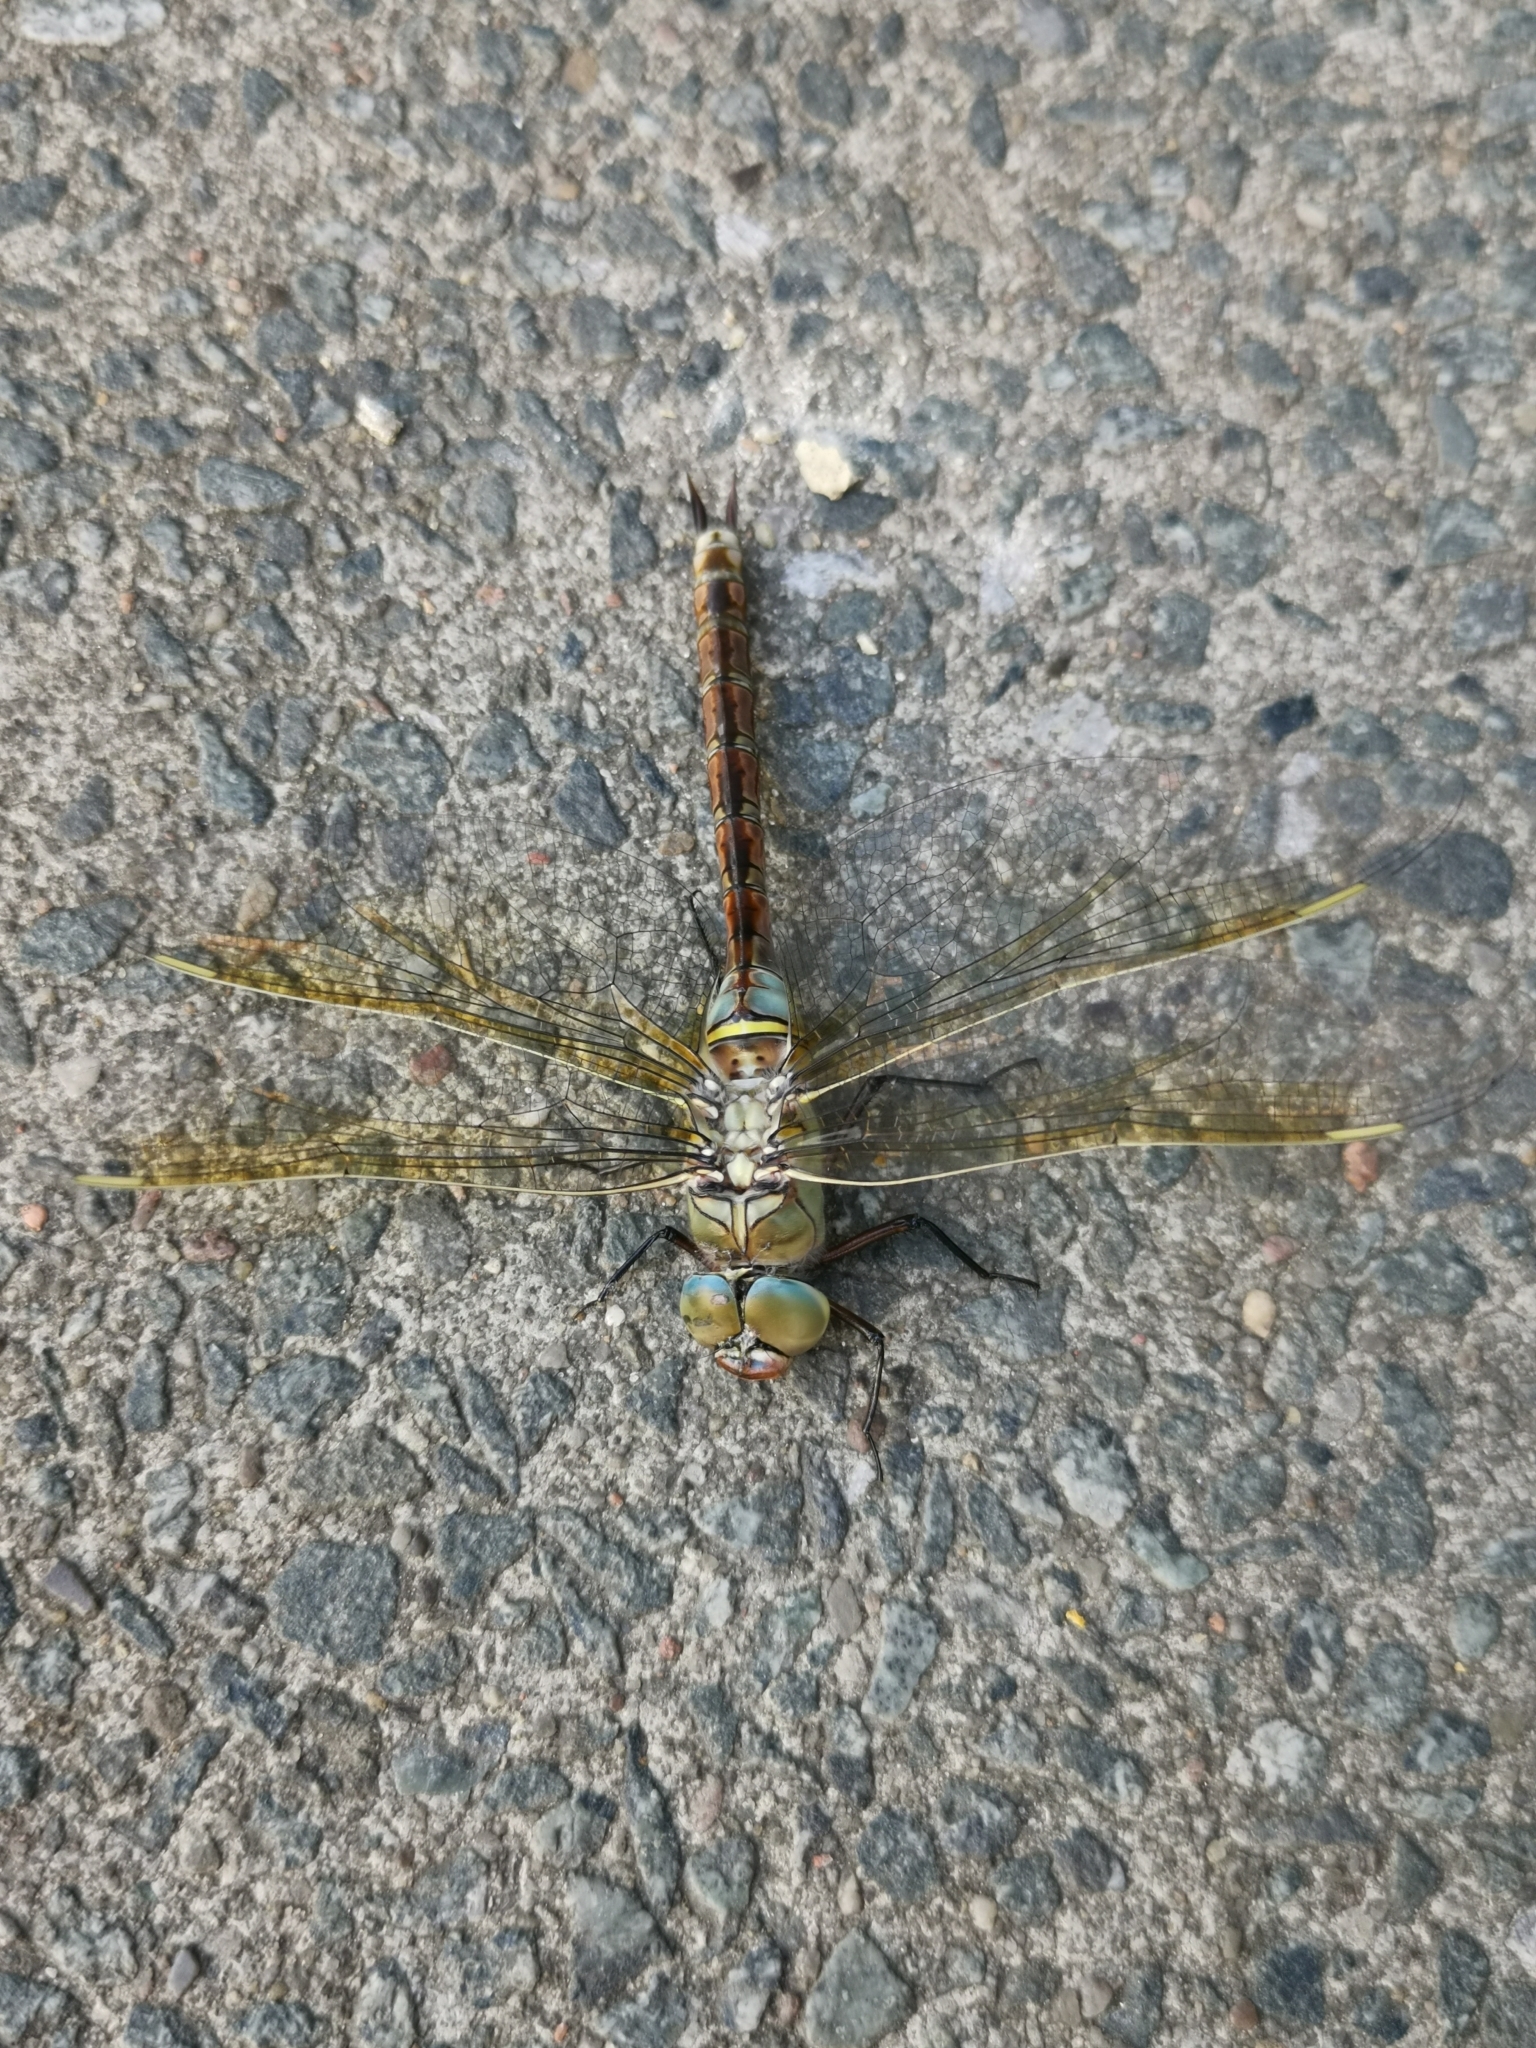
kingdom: Animalia
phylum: Arthropoda
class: Insecta
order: Odonata
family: Aeshnidae
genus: Anax
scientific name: Anax parthenope
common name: Lesser emperor
